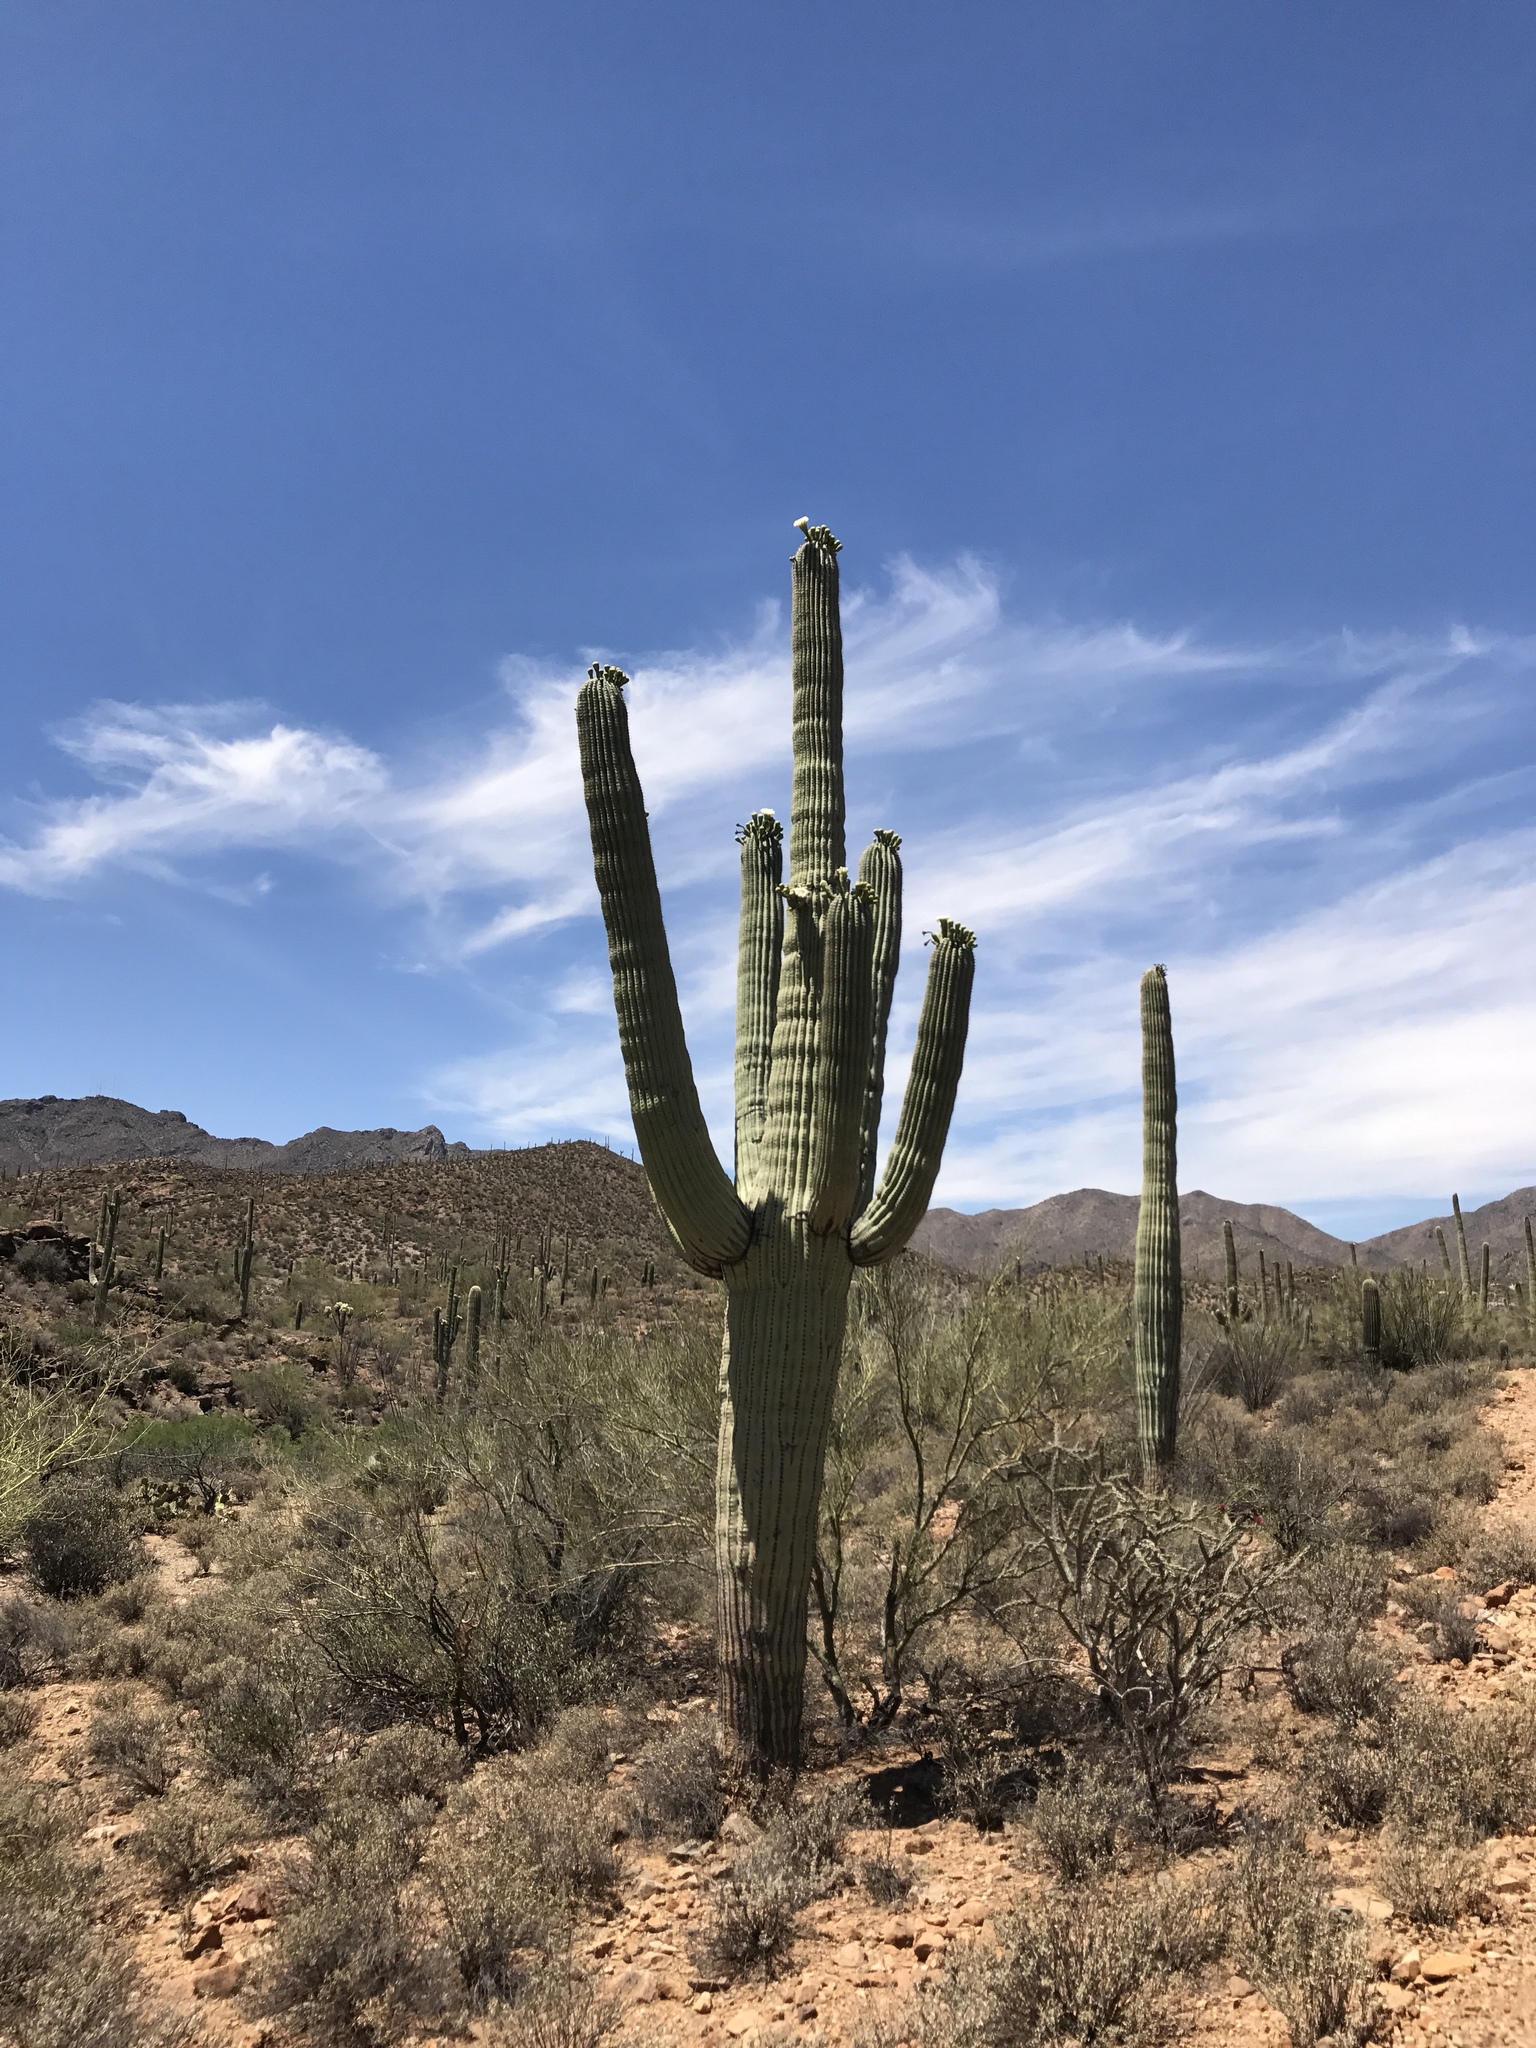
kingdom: Plantae
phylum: Tracheophyta
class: Magnoliopsida
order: Caryophyllales
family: Cactaceae
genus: Carnegiea
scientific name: Carnegiea gigantea
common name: Saguaro
